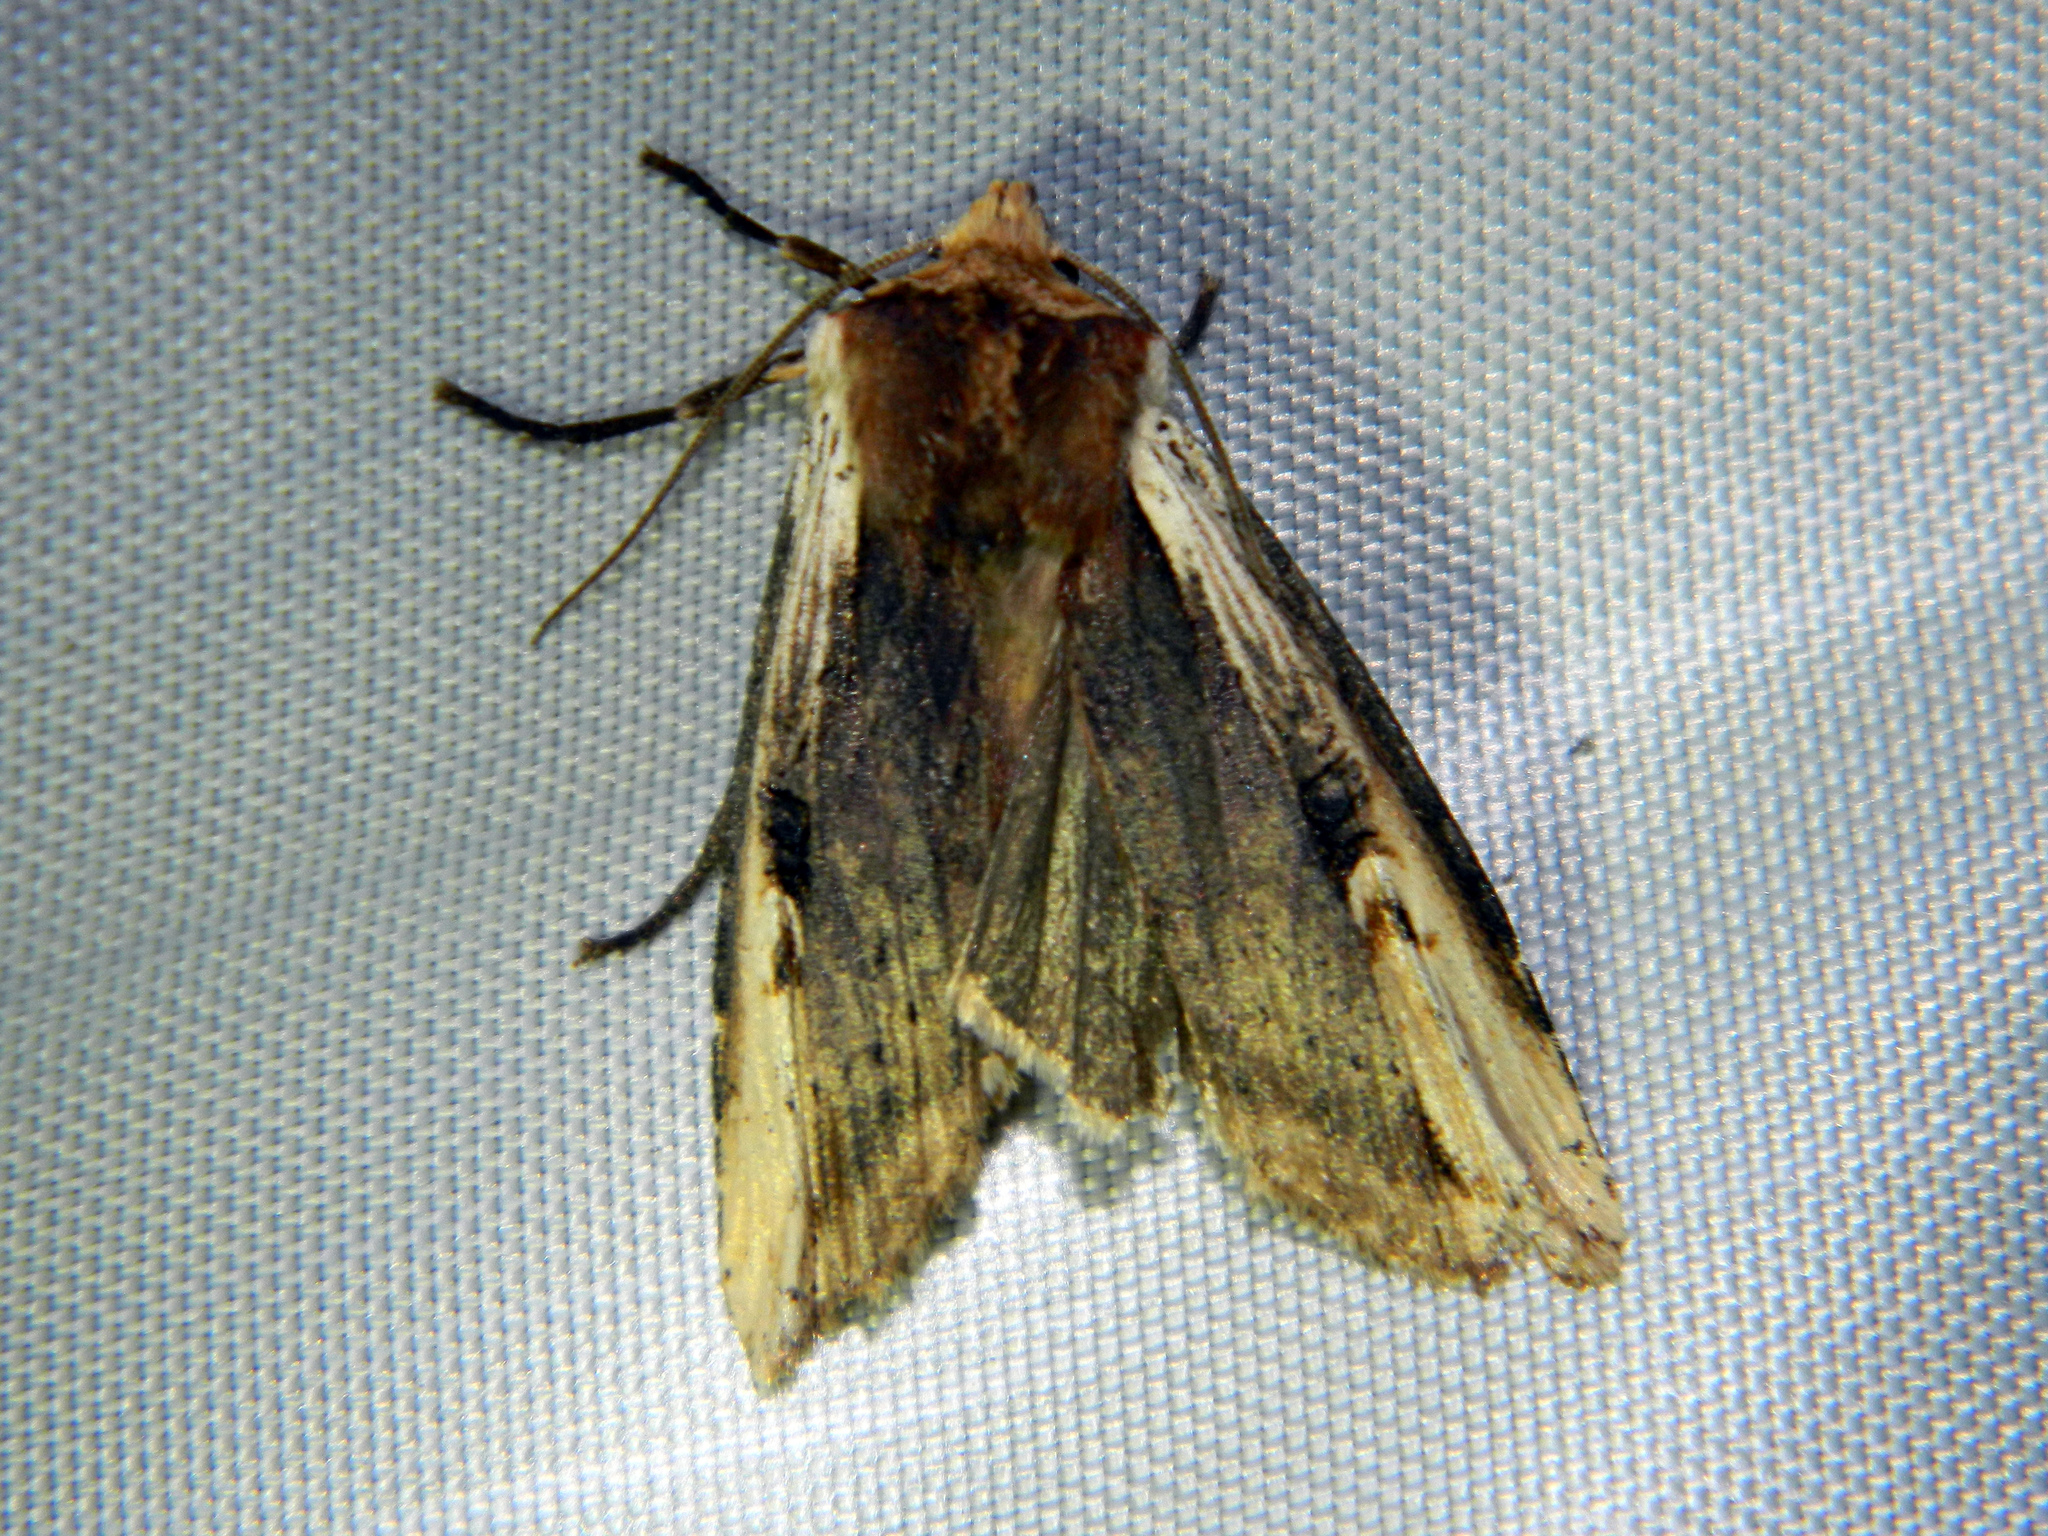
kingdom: Animalia
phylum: Arthropoda
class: Insecta
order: Lepidoptera
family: Noctuidae
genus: Xylena
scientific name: Xylena curvimacula
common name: Dot-and-dash swordgrass moth
